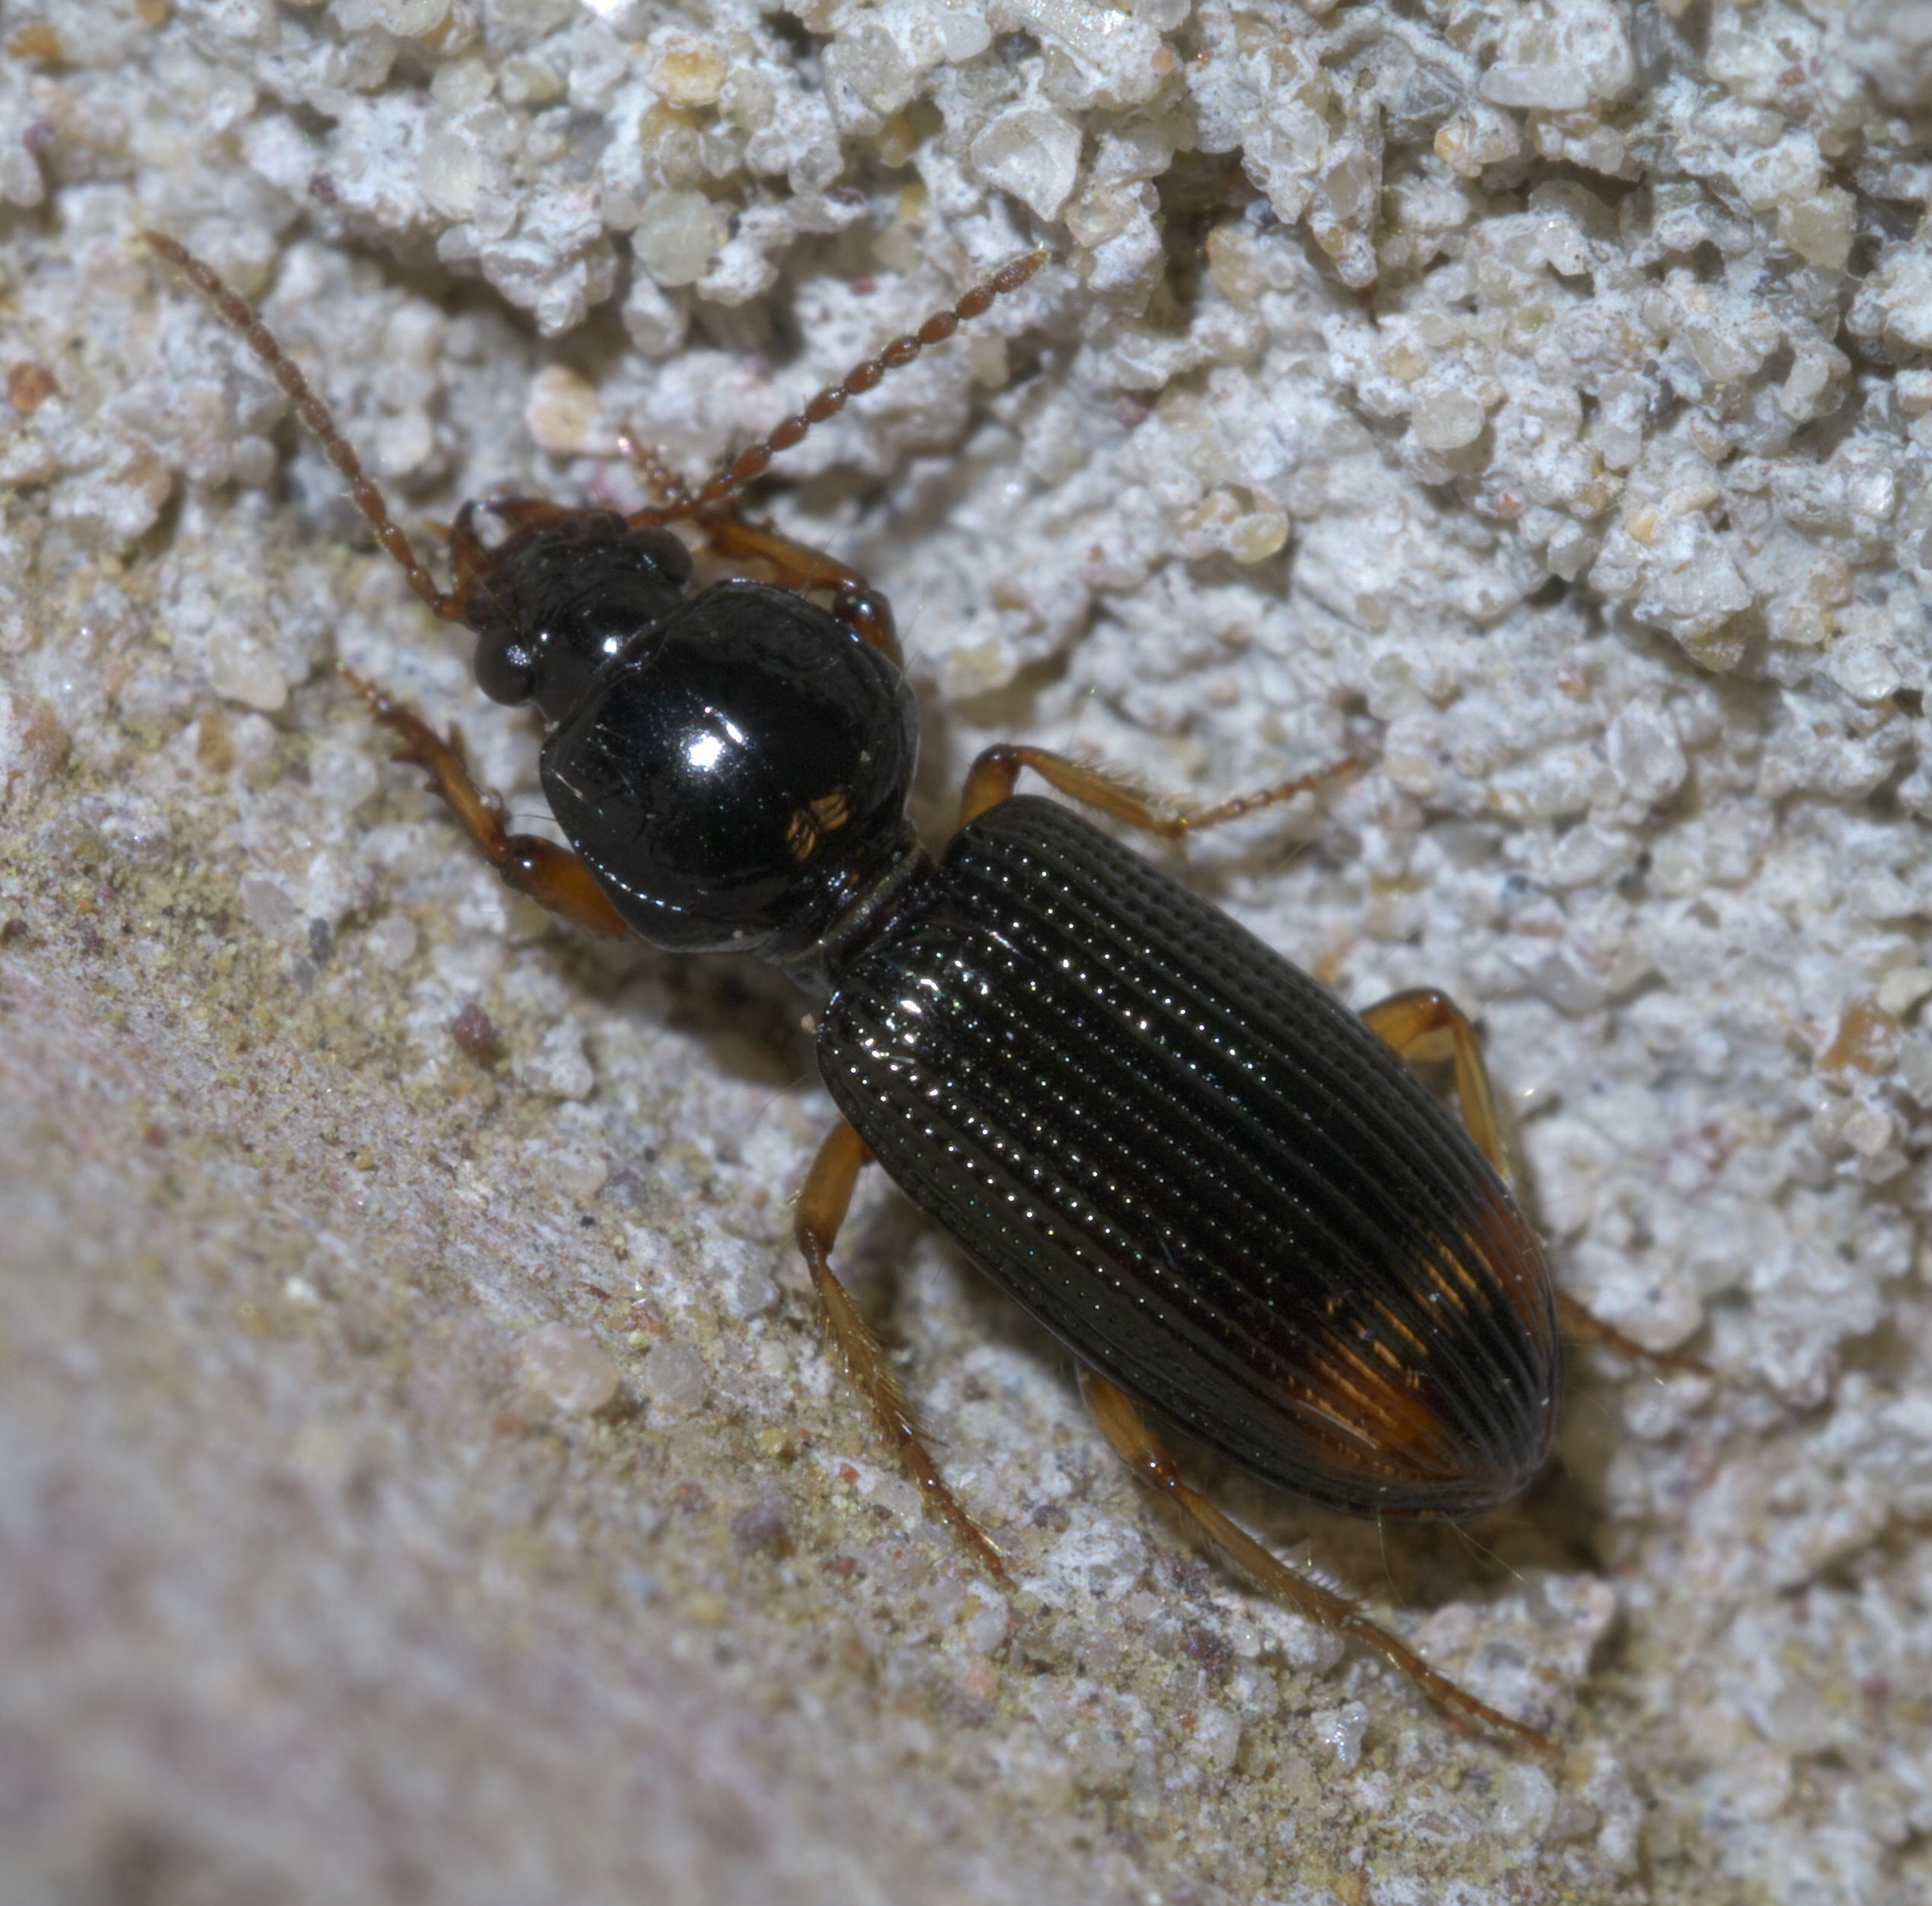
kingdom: Animalia
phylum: Arthropoda
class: Insecta
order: Coleoptera
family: Carabidae
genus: Aspidoglossa
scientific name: Aspidoglossa subangulata
